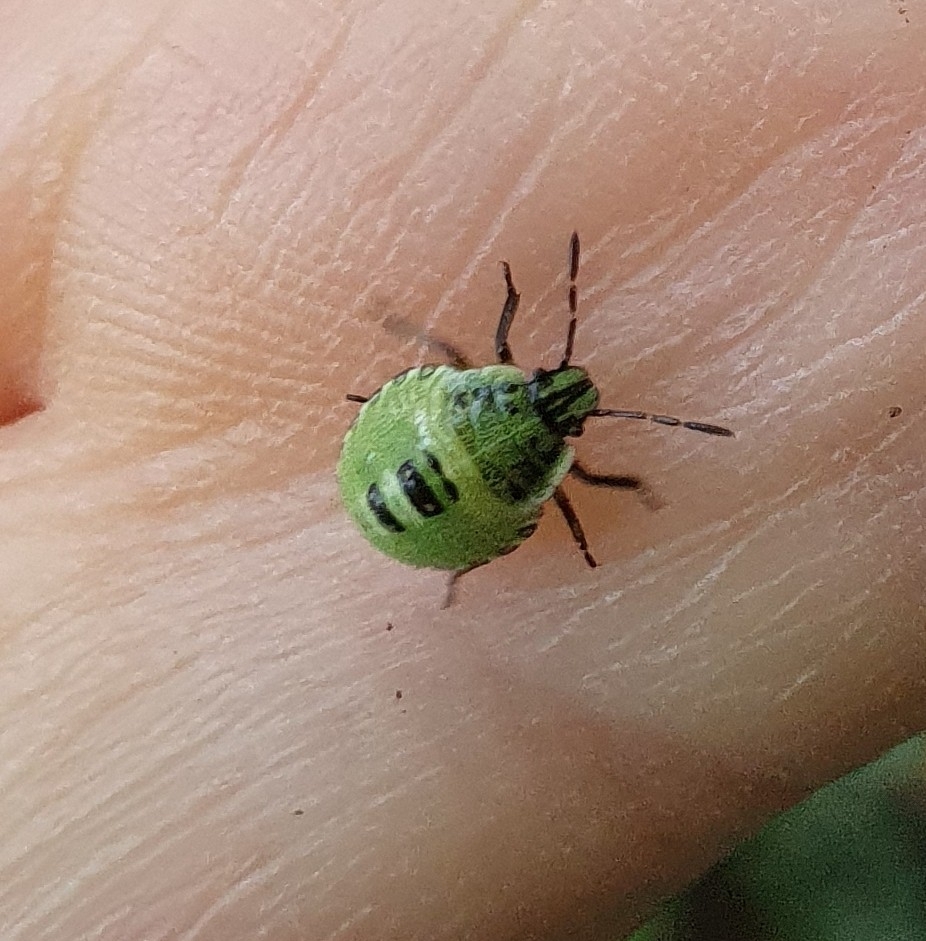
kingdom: Animalia
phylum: Arthropoda
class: Insecta
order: Hemiptera
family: Pentatomidae
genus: Palomena
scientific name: Palomena prasina
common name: Green shieldbug
